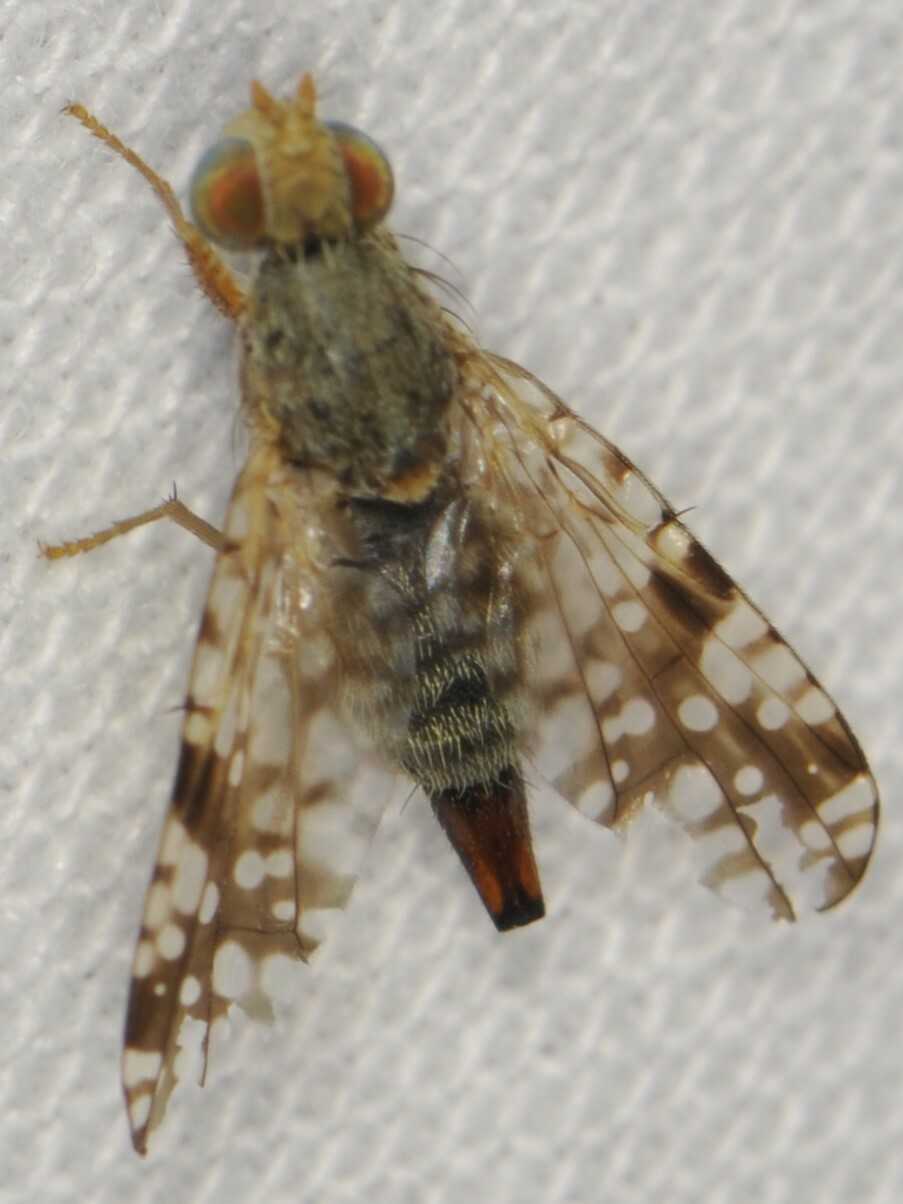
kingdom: Animalia
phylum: Arthropoda
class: Insecta
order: Diptera
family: Tephritidae
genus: Neotephritis
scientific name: Neotephritis finalis
